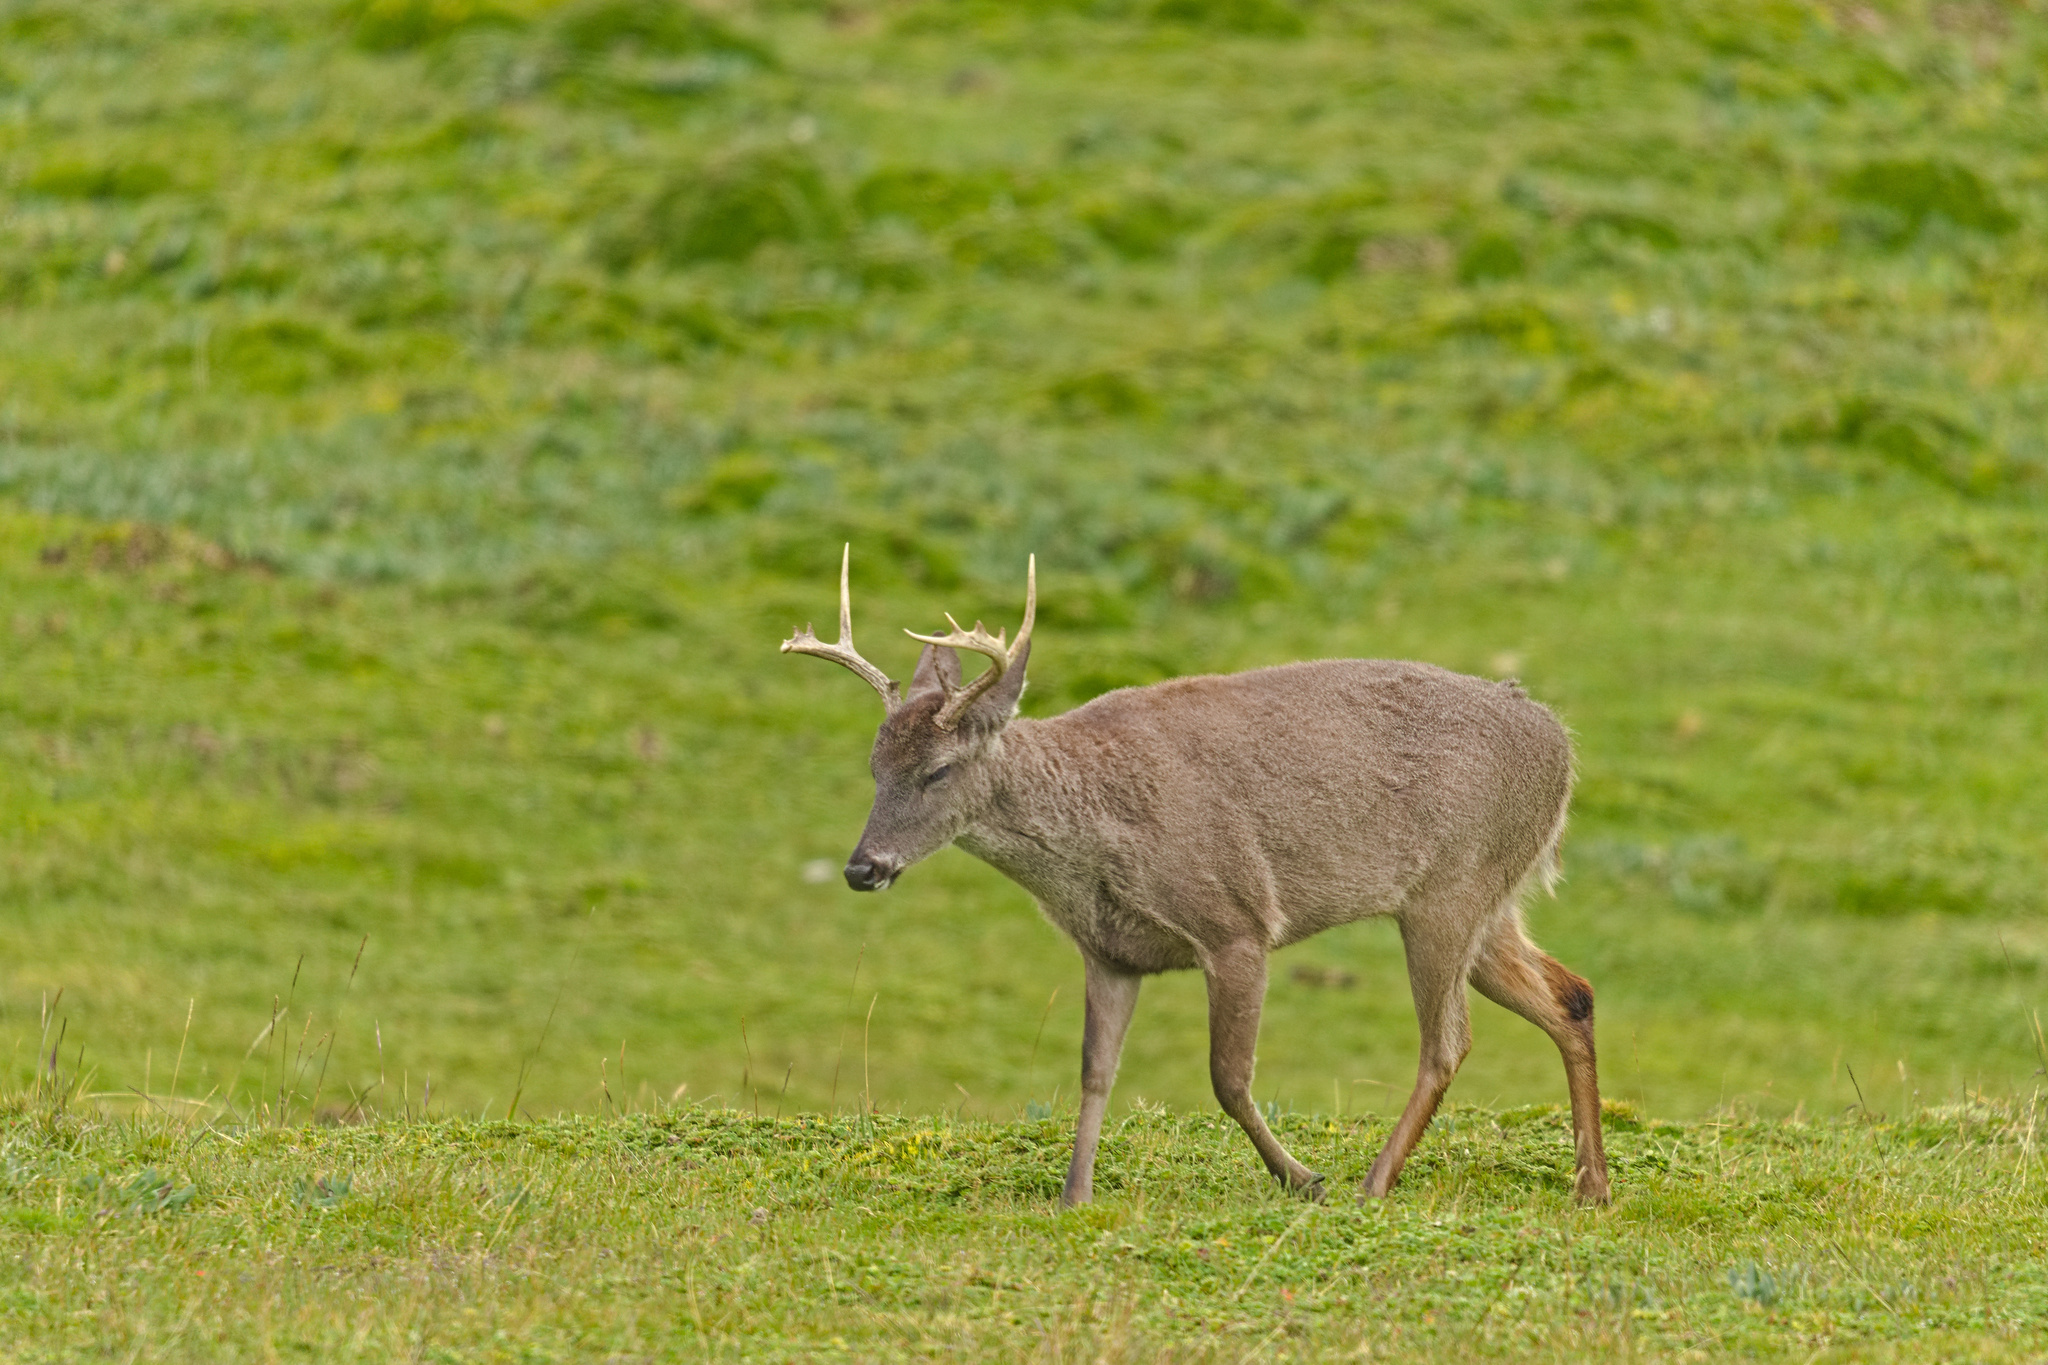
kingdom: Animalia
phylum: Chordata
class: Mammalia
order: Artiodactyla
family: Cervidae
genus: Odocoileus
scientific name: Odocoileus virginianus
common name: White-tailed deer
